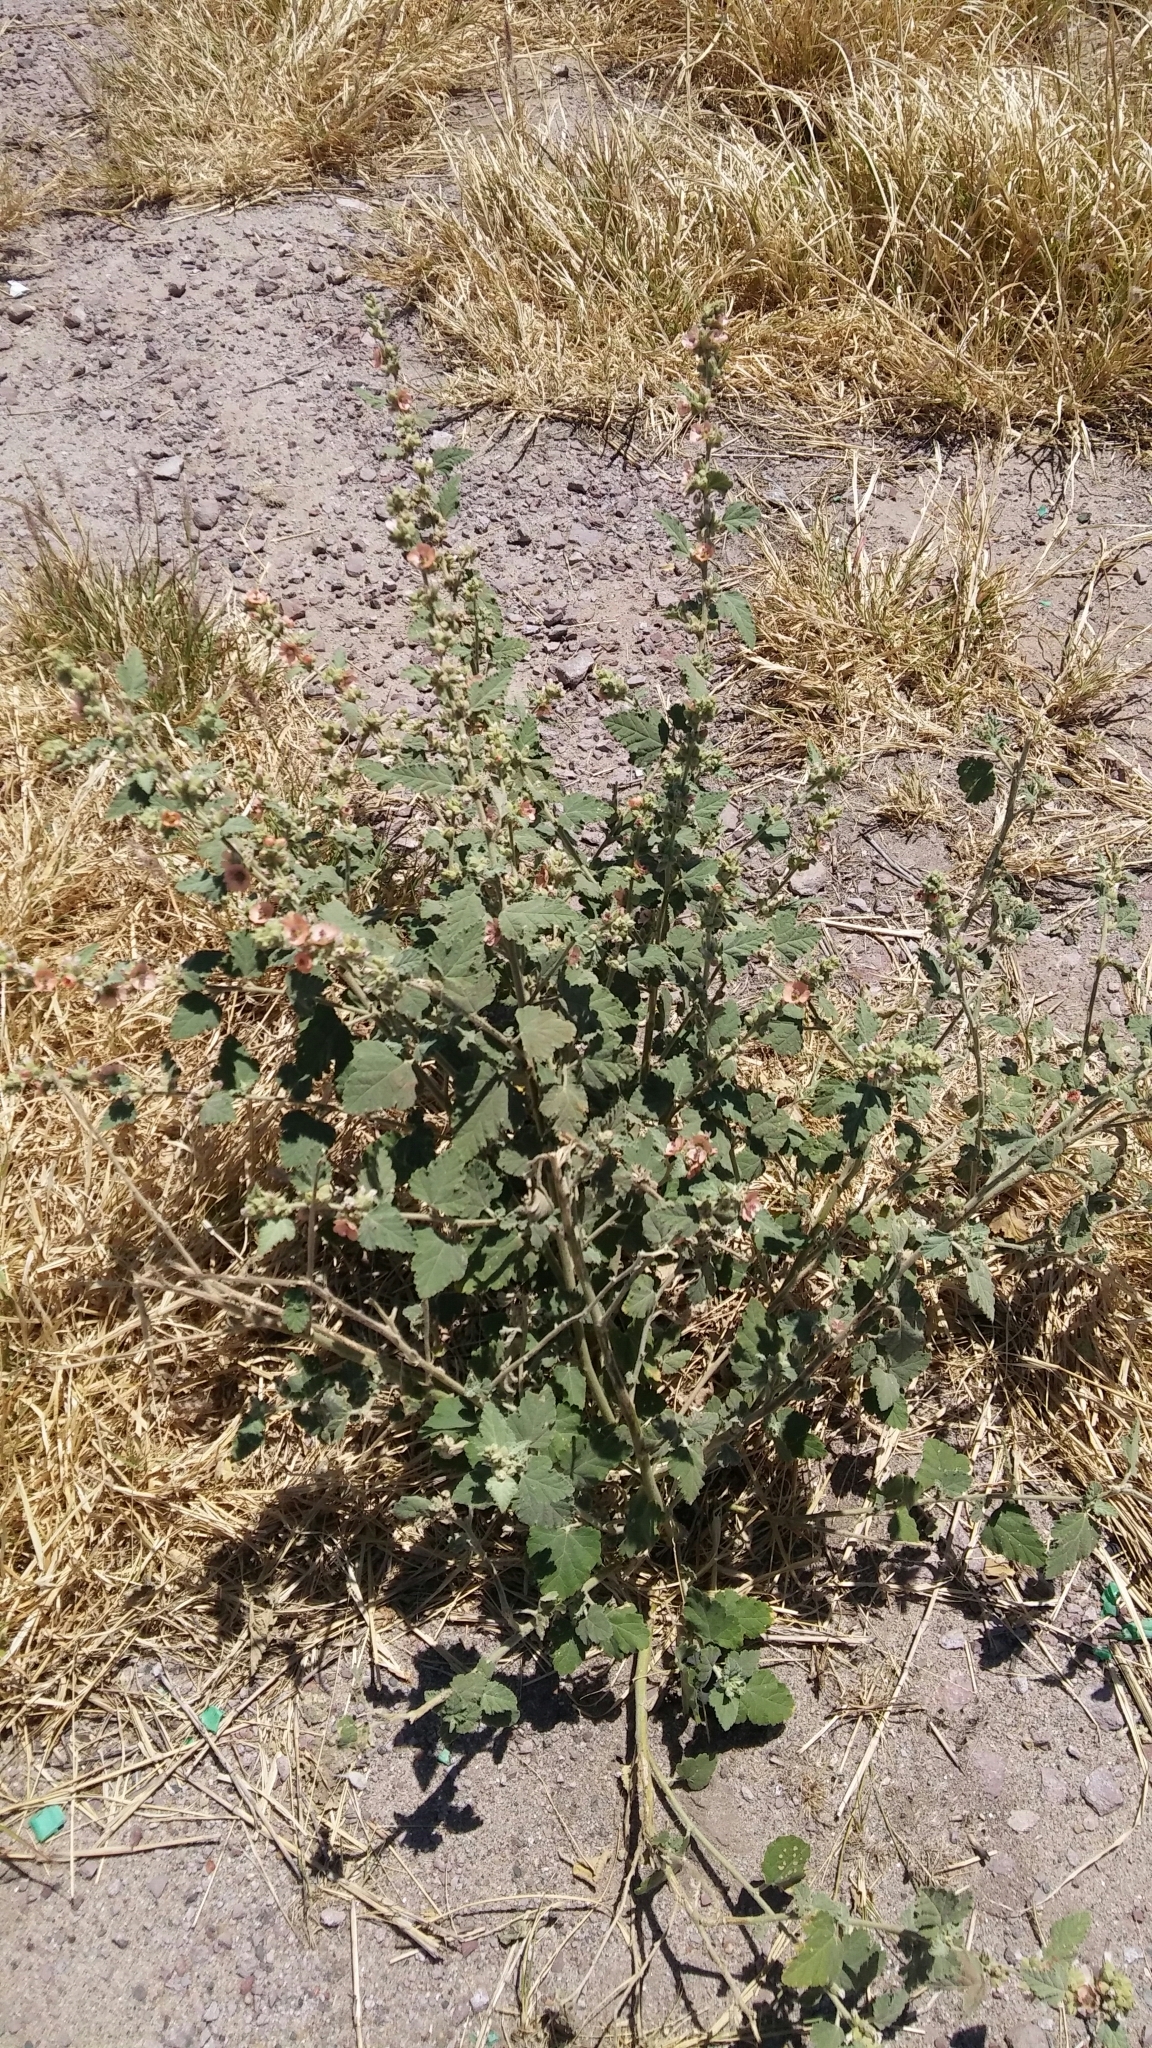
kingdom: Plantae
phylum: Tracheophyta
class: Magnoliopsida
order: Malvales
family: Malvaceae
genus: Sphaeralcea
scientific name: Sphaeralcea bonariensis
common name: Latin globemallow
